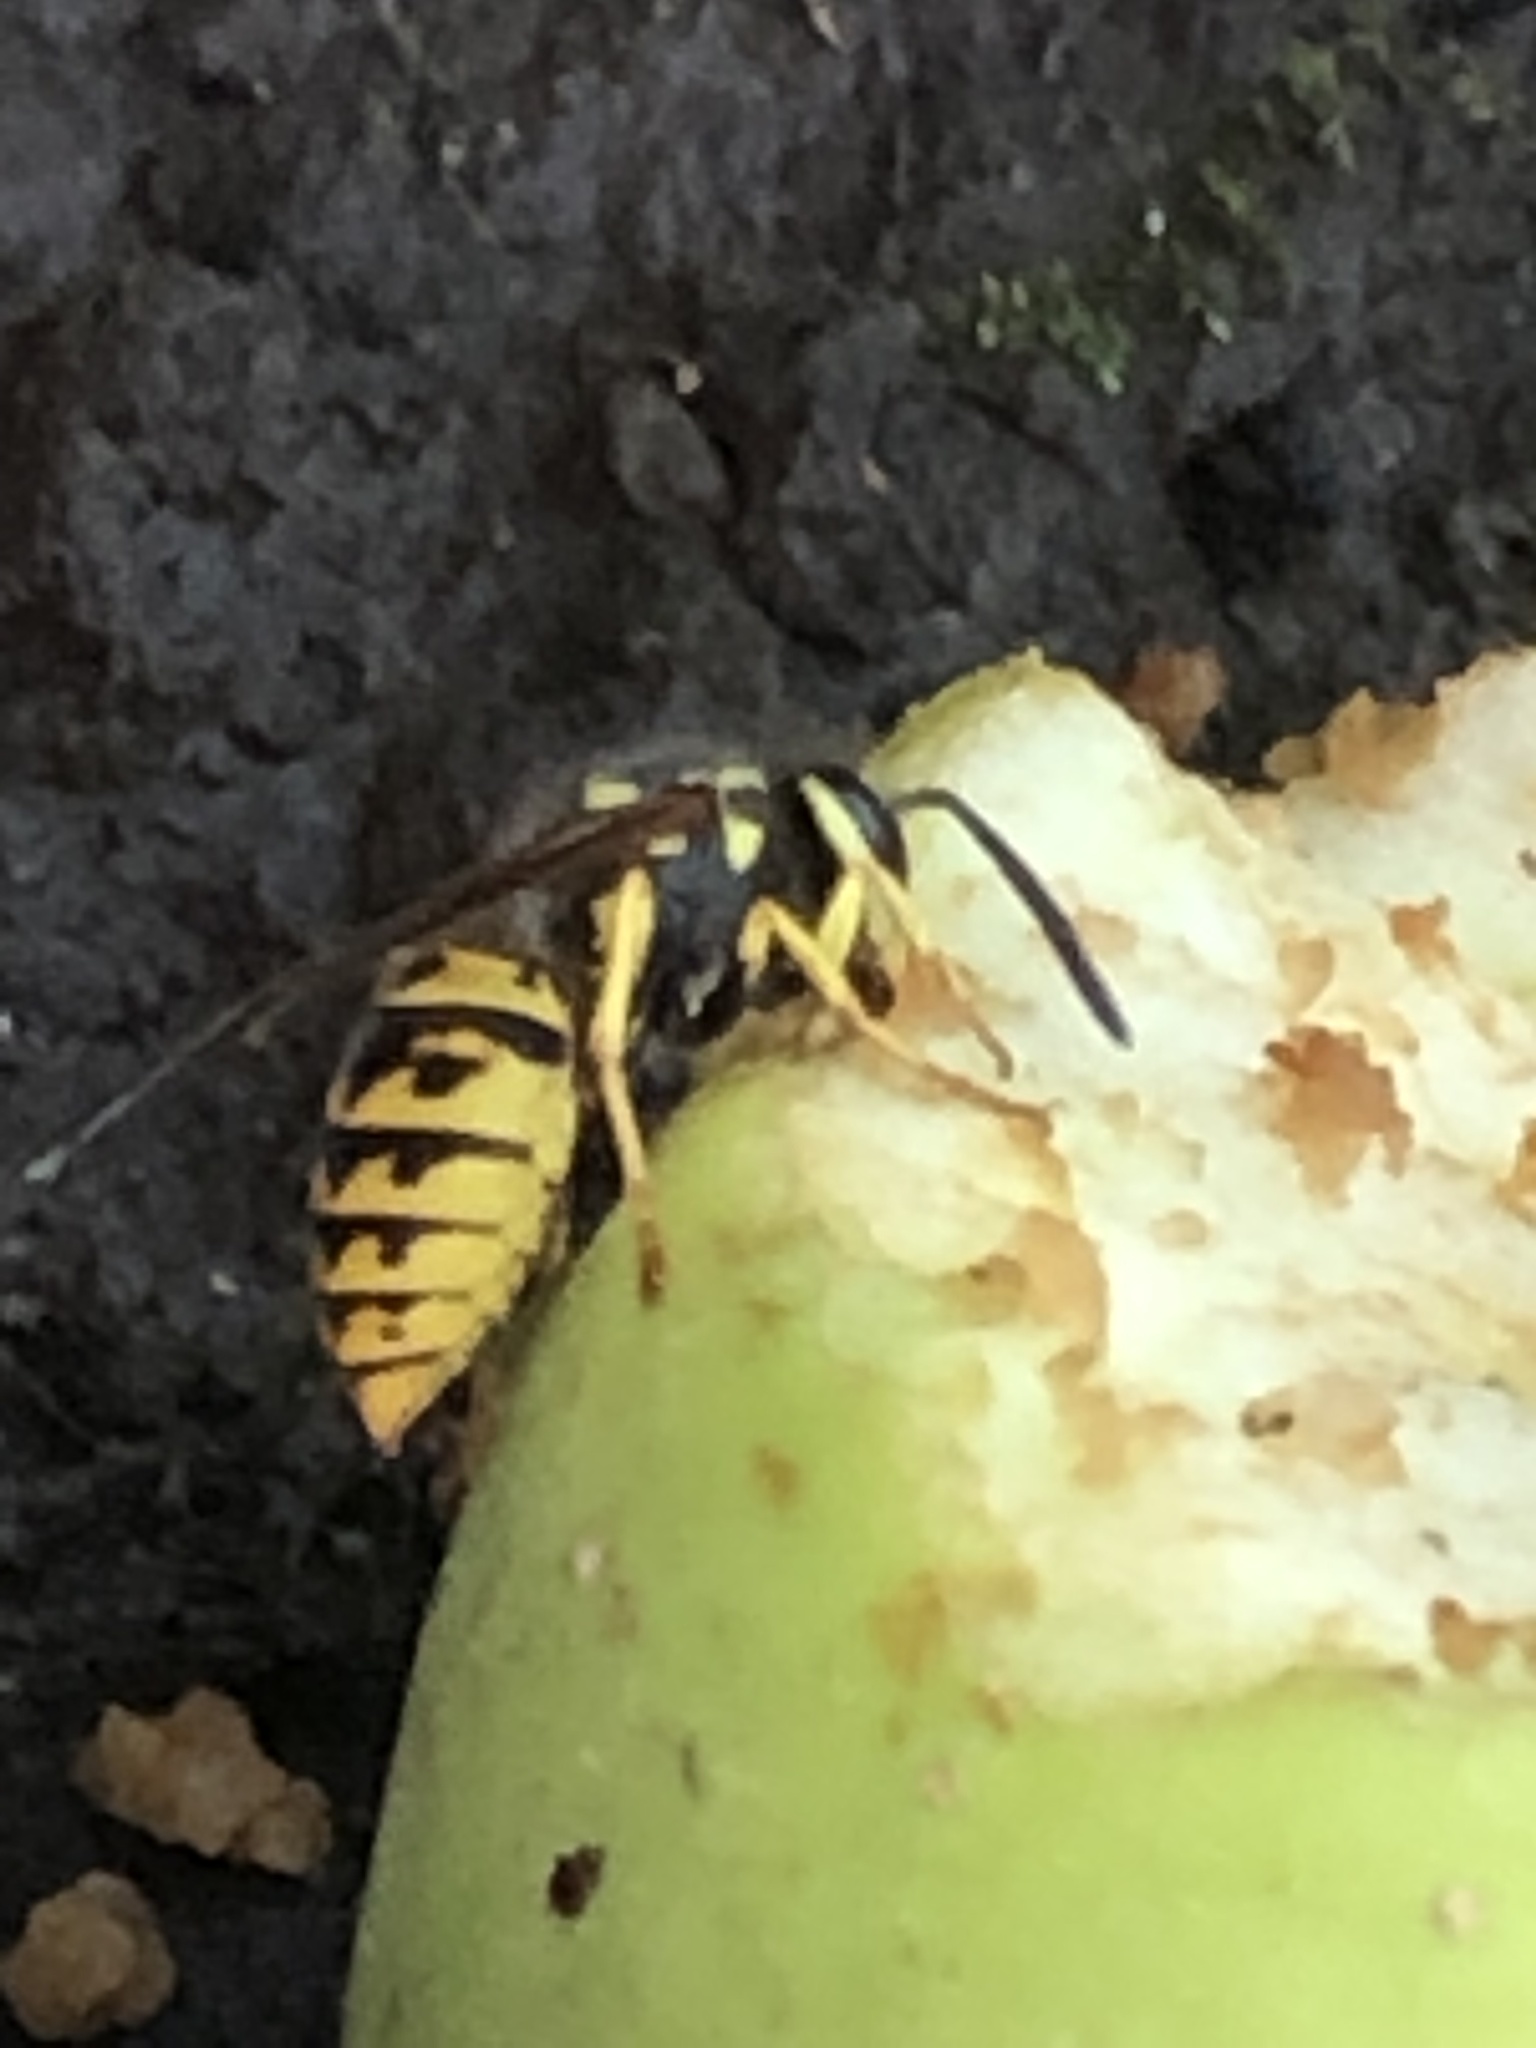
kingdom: Animalia
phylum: Arthropoda
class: Insecta
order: Hymenoptera
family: Vespidae
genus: Vespula
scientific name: Vespula germanica
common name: German wasp
